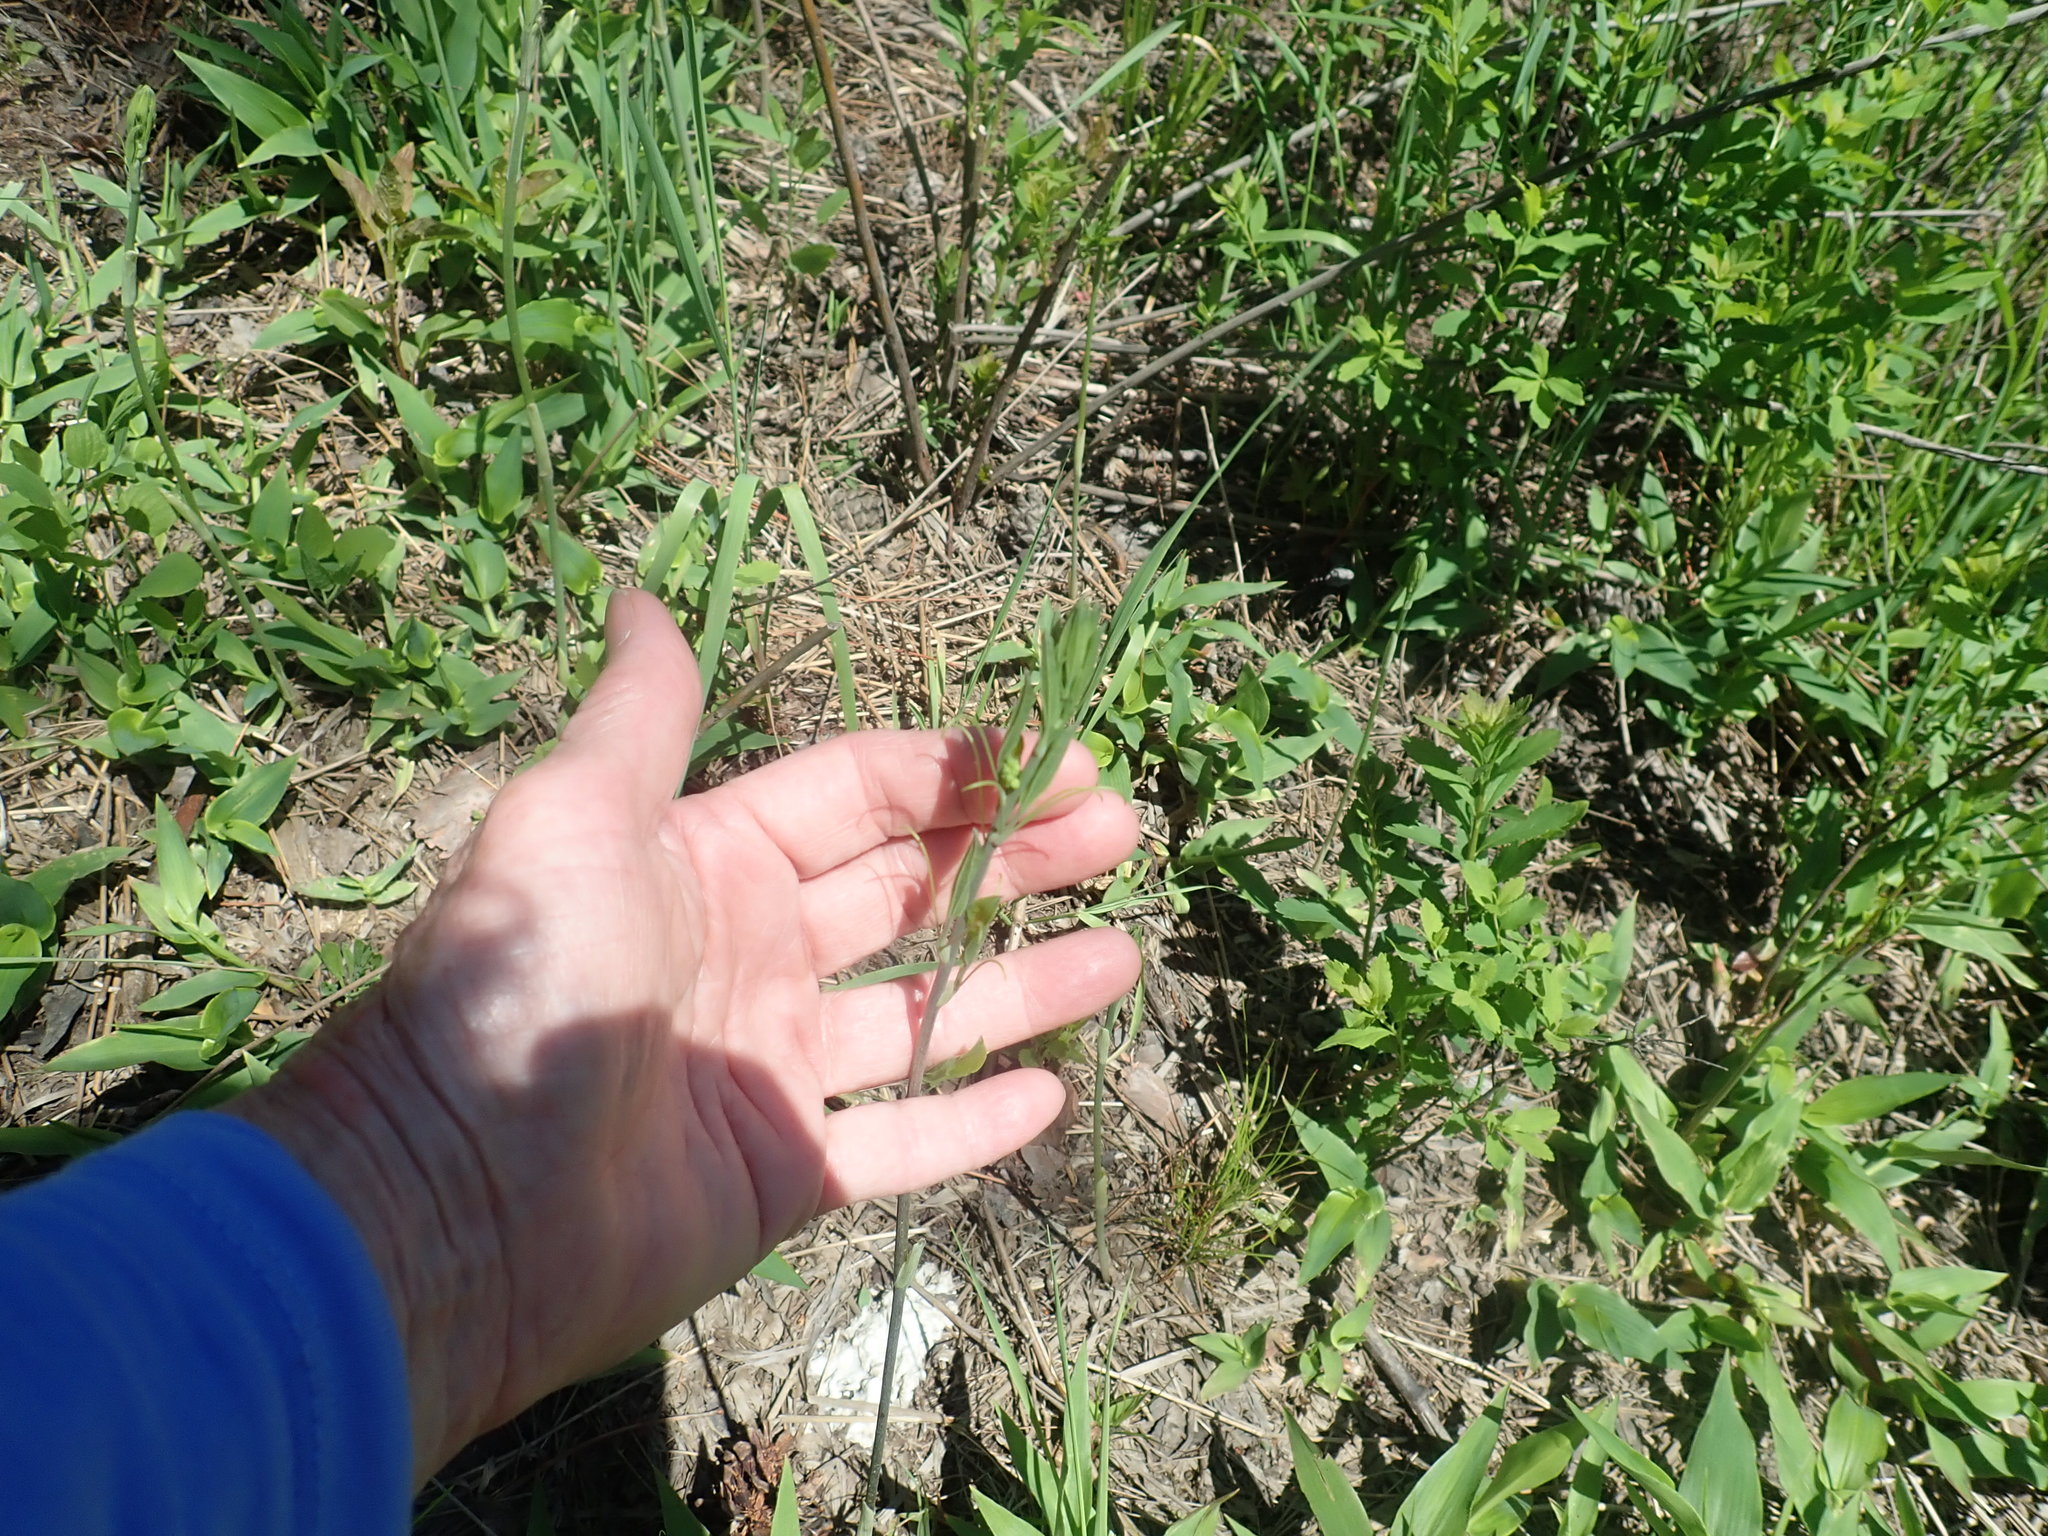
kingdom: Plantae
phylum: Tracheophyta
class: Liliopsida
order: Liliales
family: Smilacaceae
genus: Smilax
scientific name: Smilax herbacea
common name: Jacob's-ladder
